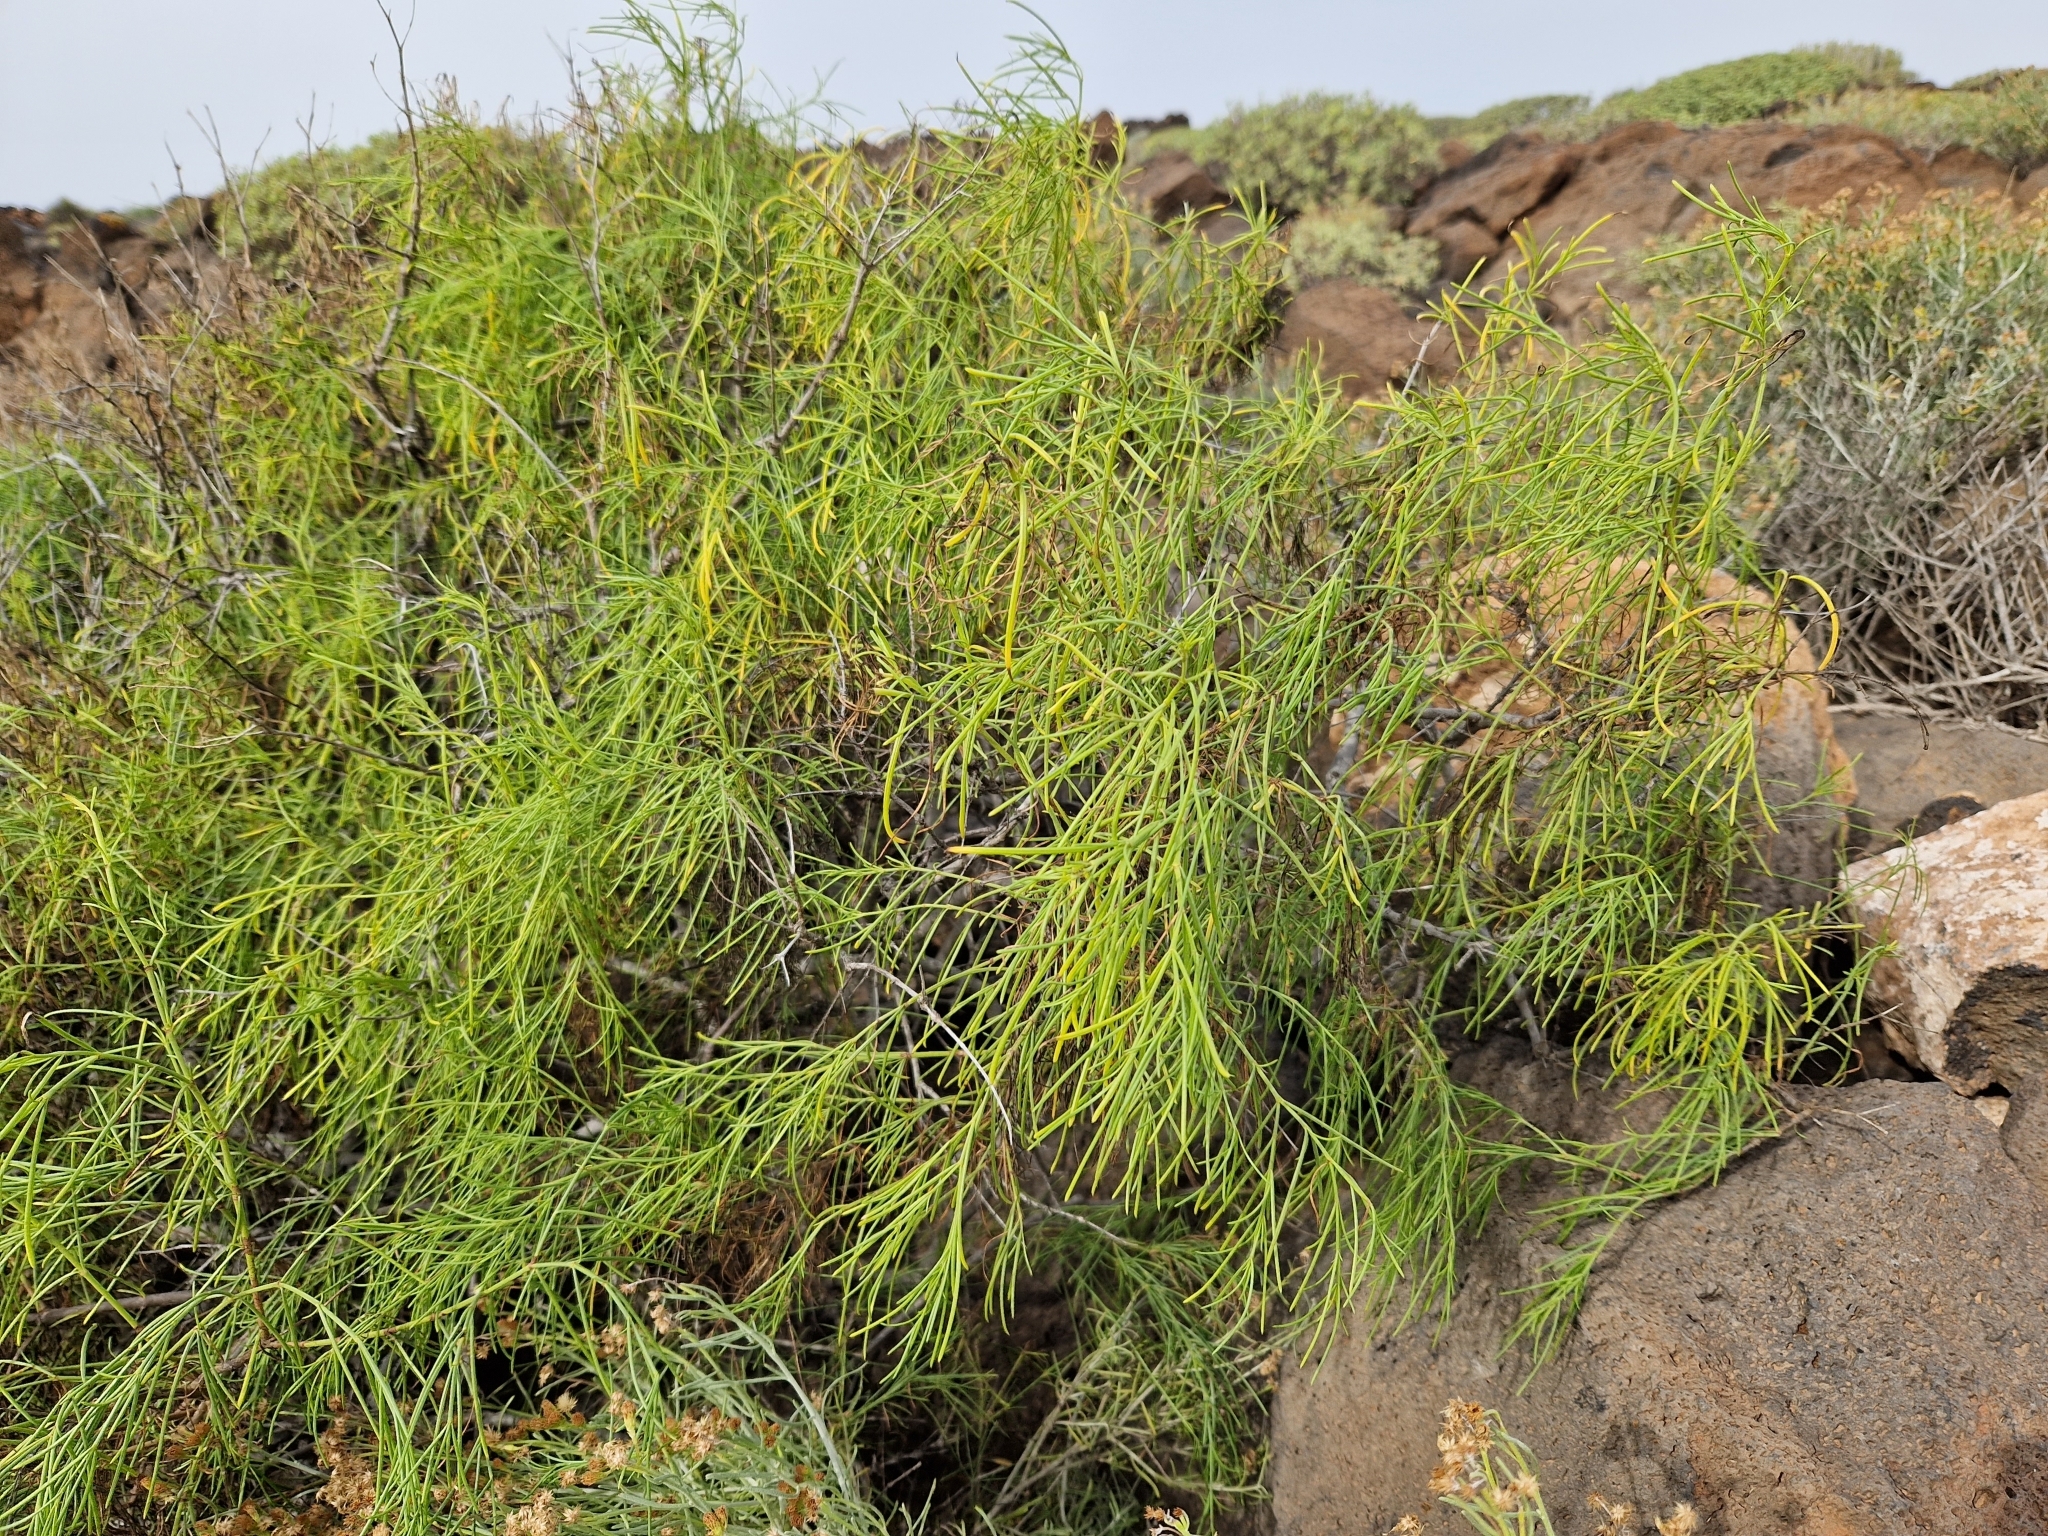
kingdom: Plantae
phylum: Tracheophyta
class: Magnoliopsida
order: Gentianales
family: Rubiaceae
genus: Plocama
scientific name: Plocama pendula
